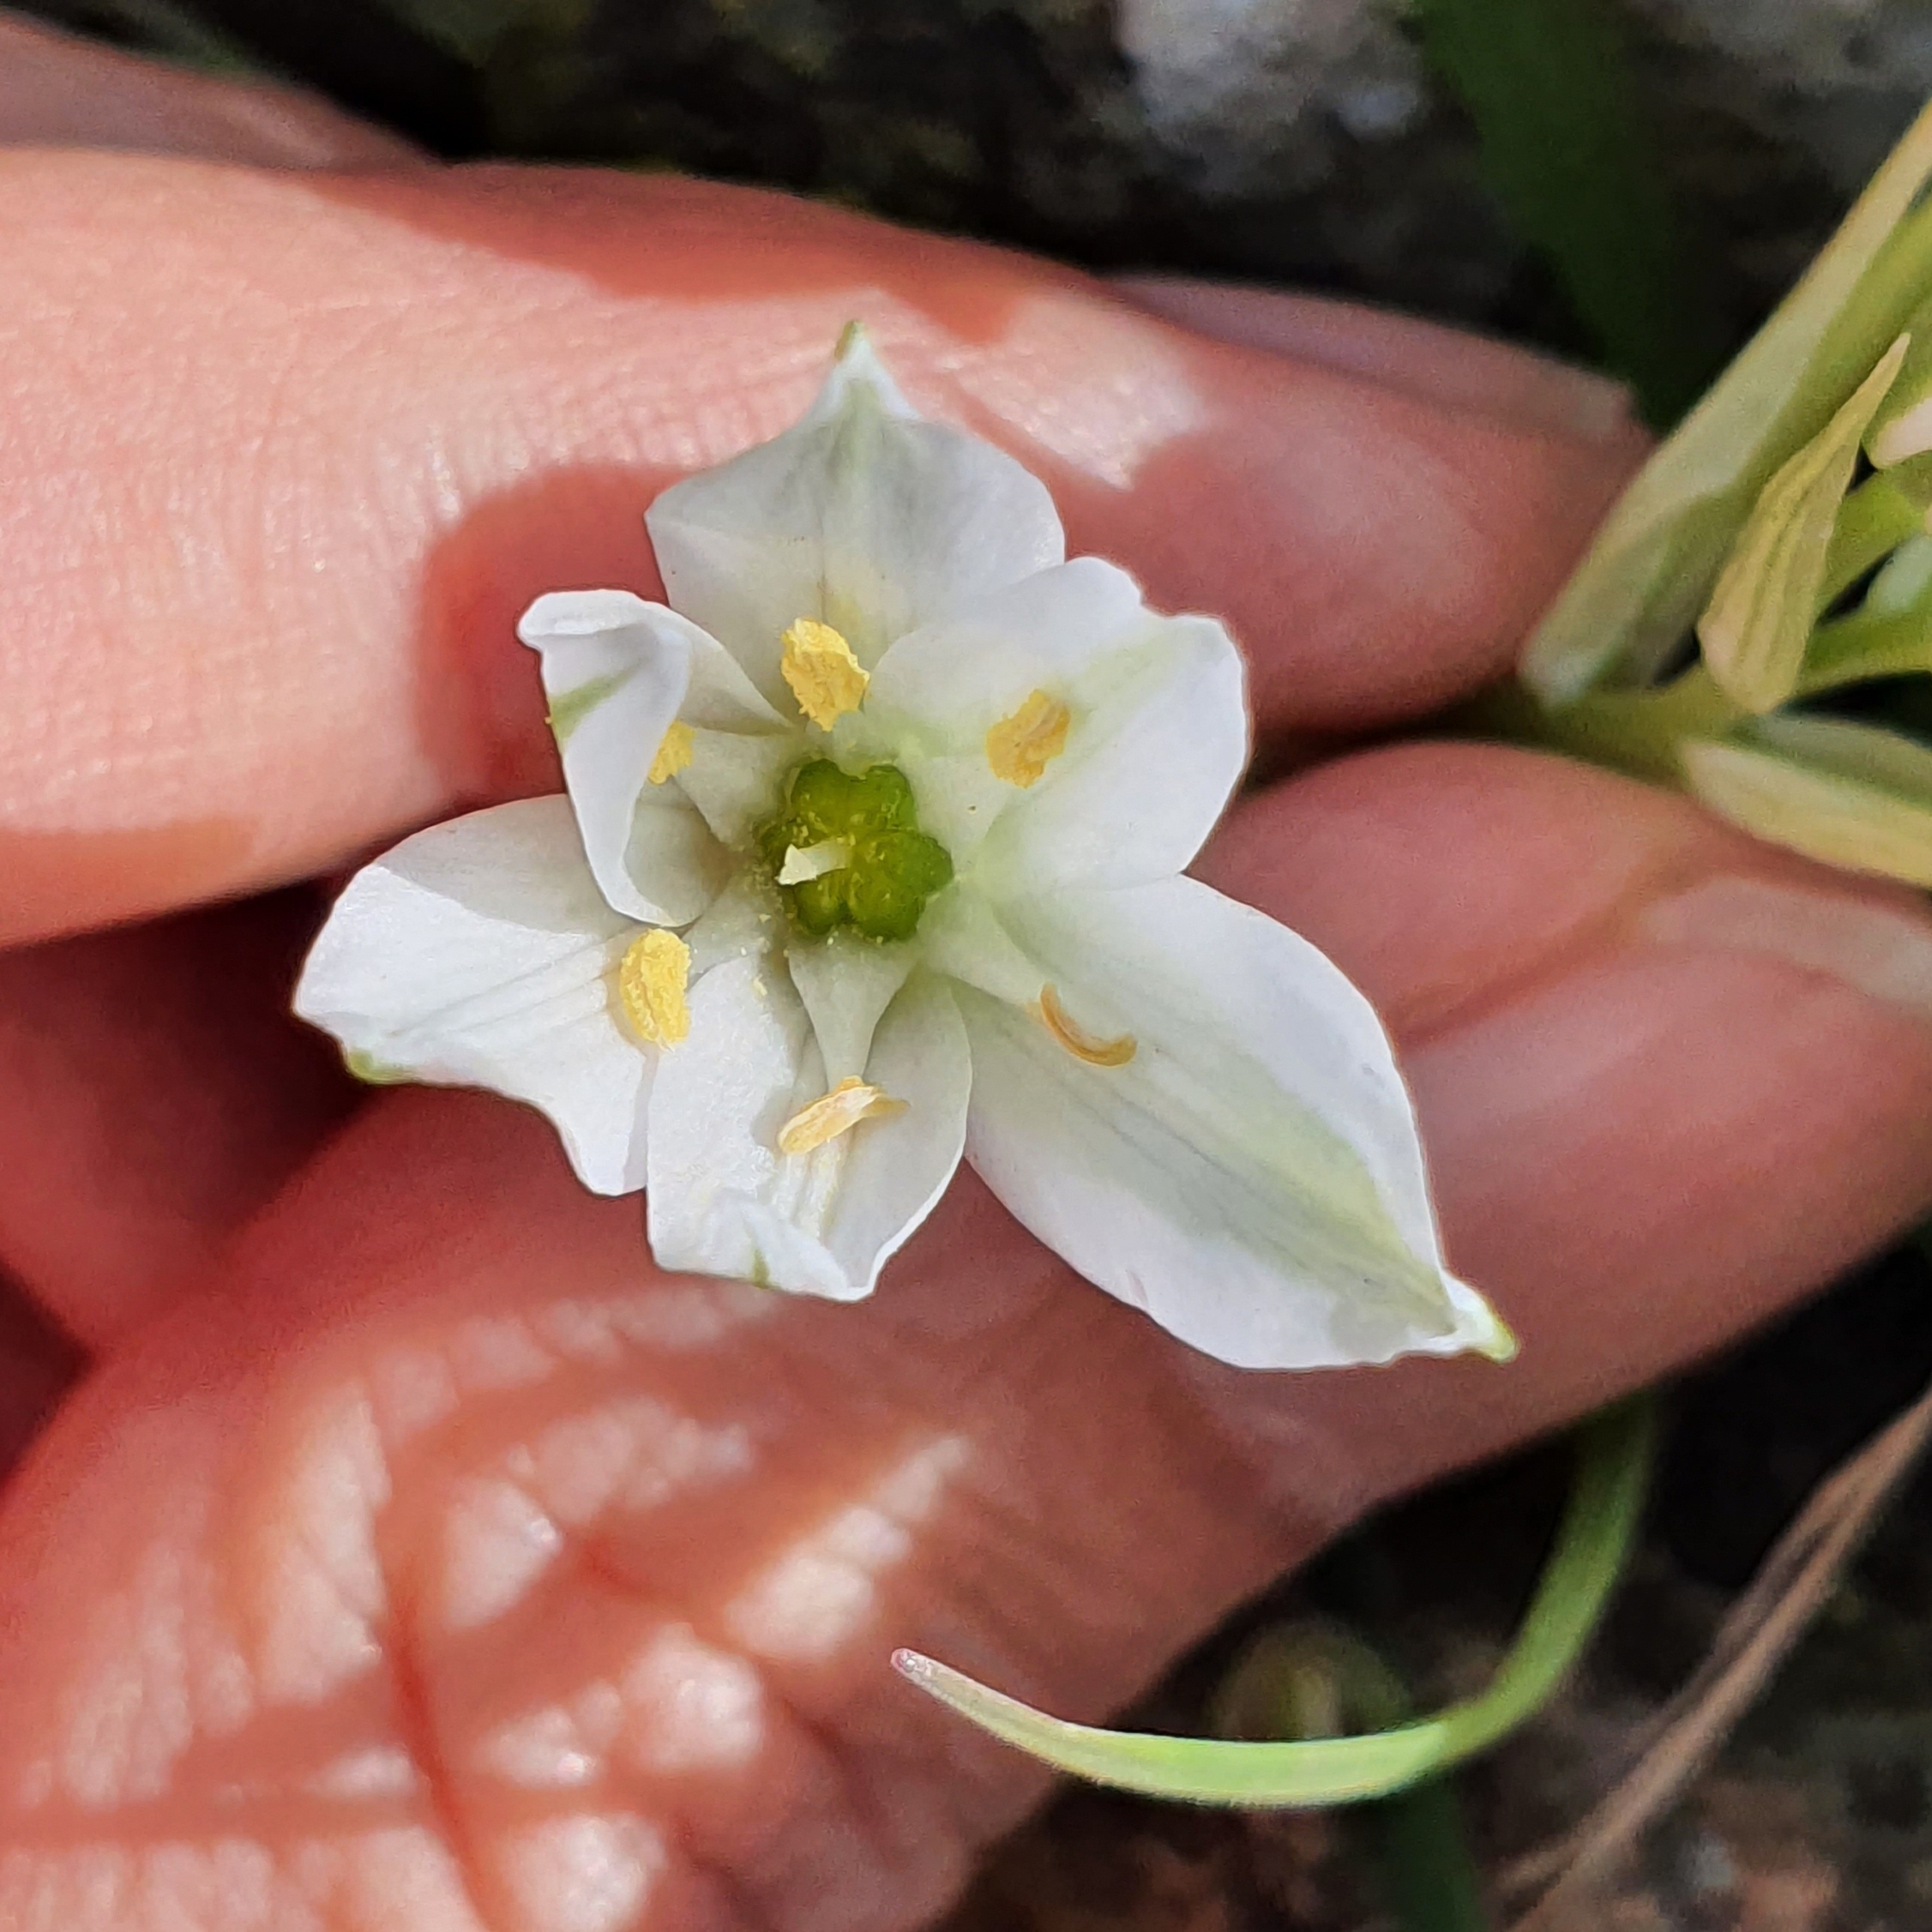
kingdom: Plantae
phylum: Tracheophyta
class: Liliopsida
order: Asparagales
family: Asparagaceae
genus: Ornithogalum
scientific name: Ornithogalum baeticum
